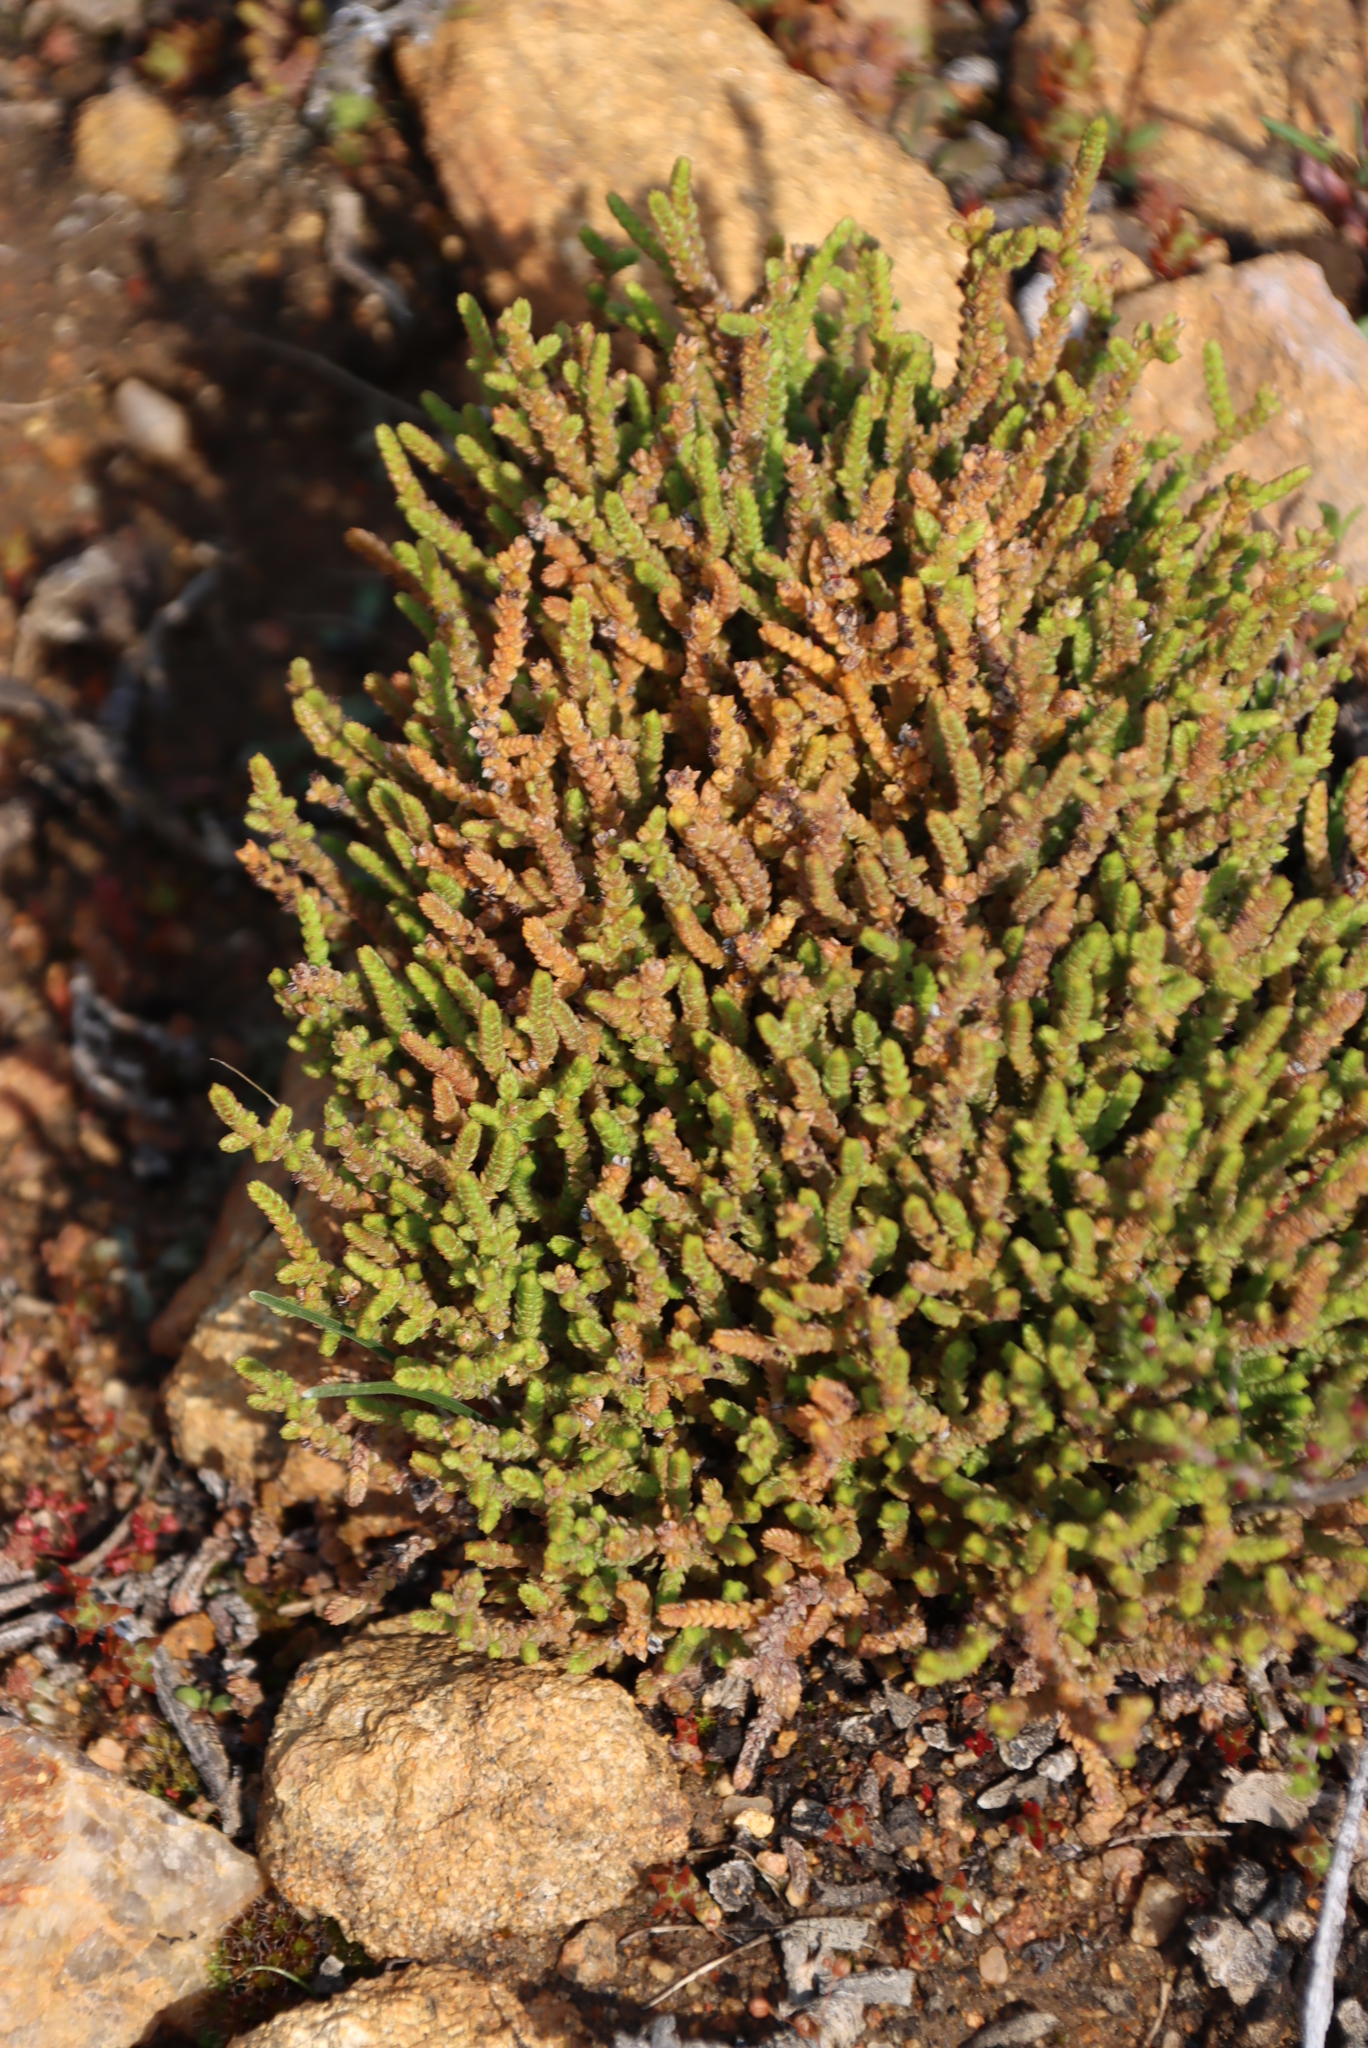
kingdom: Plantae
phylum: Tracheophyta
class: Magnoliopsida
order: Saxifragales
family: Crassulaceae
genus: Crassula
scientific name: Crassula muscosa
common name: Toy-cypress
